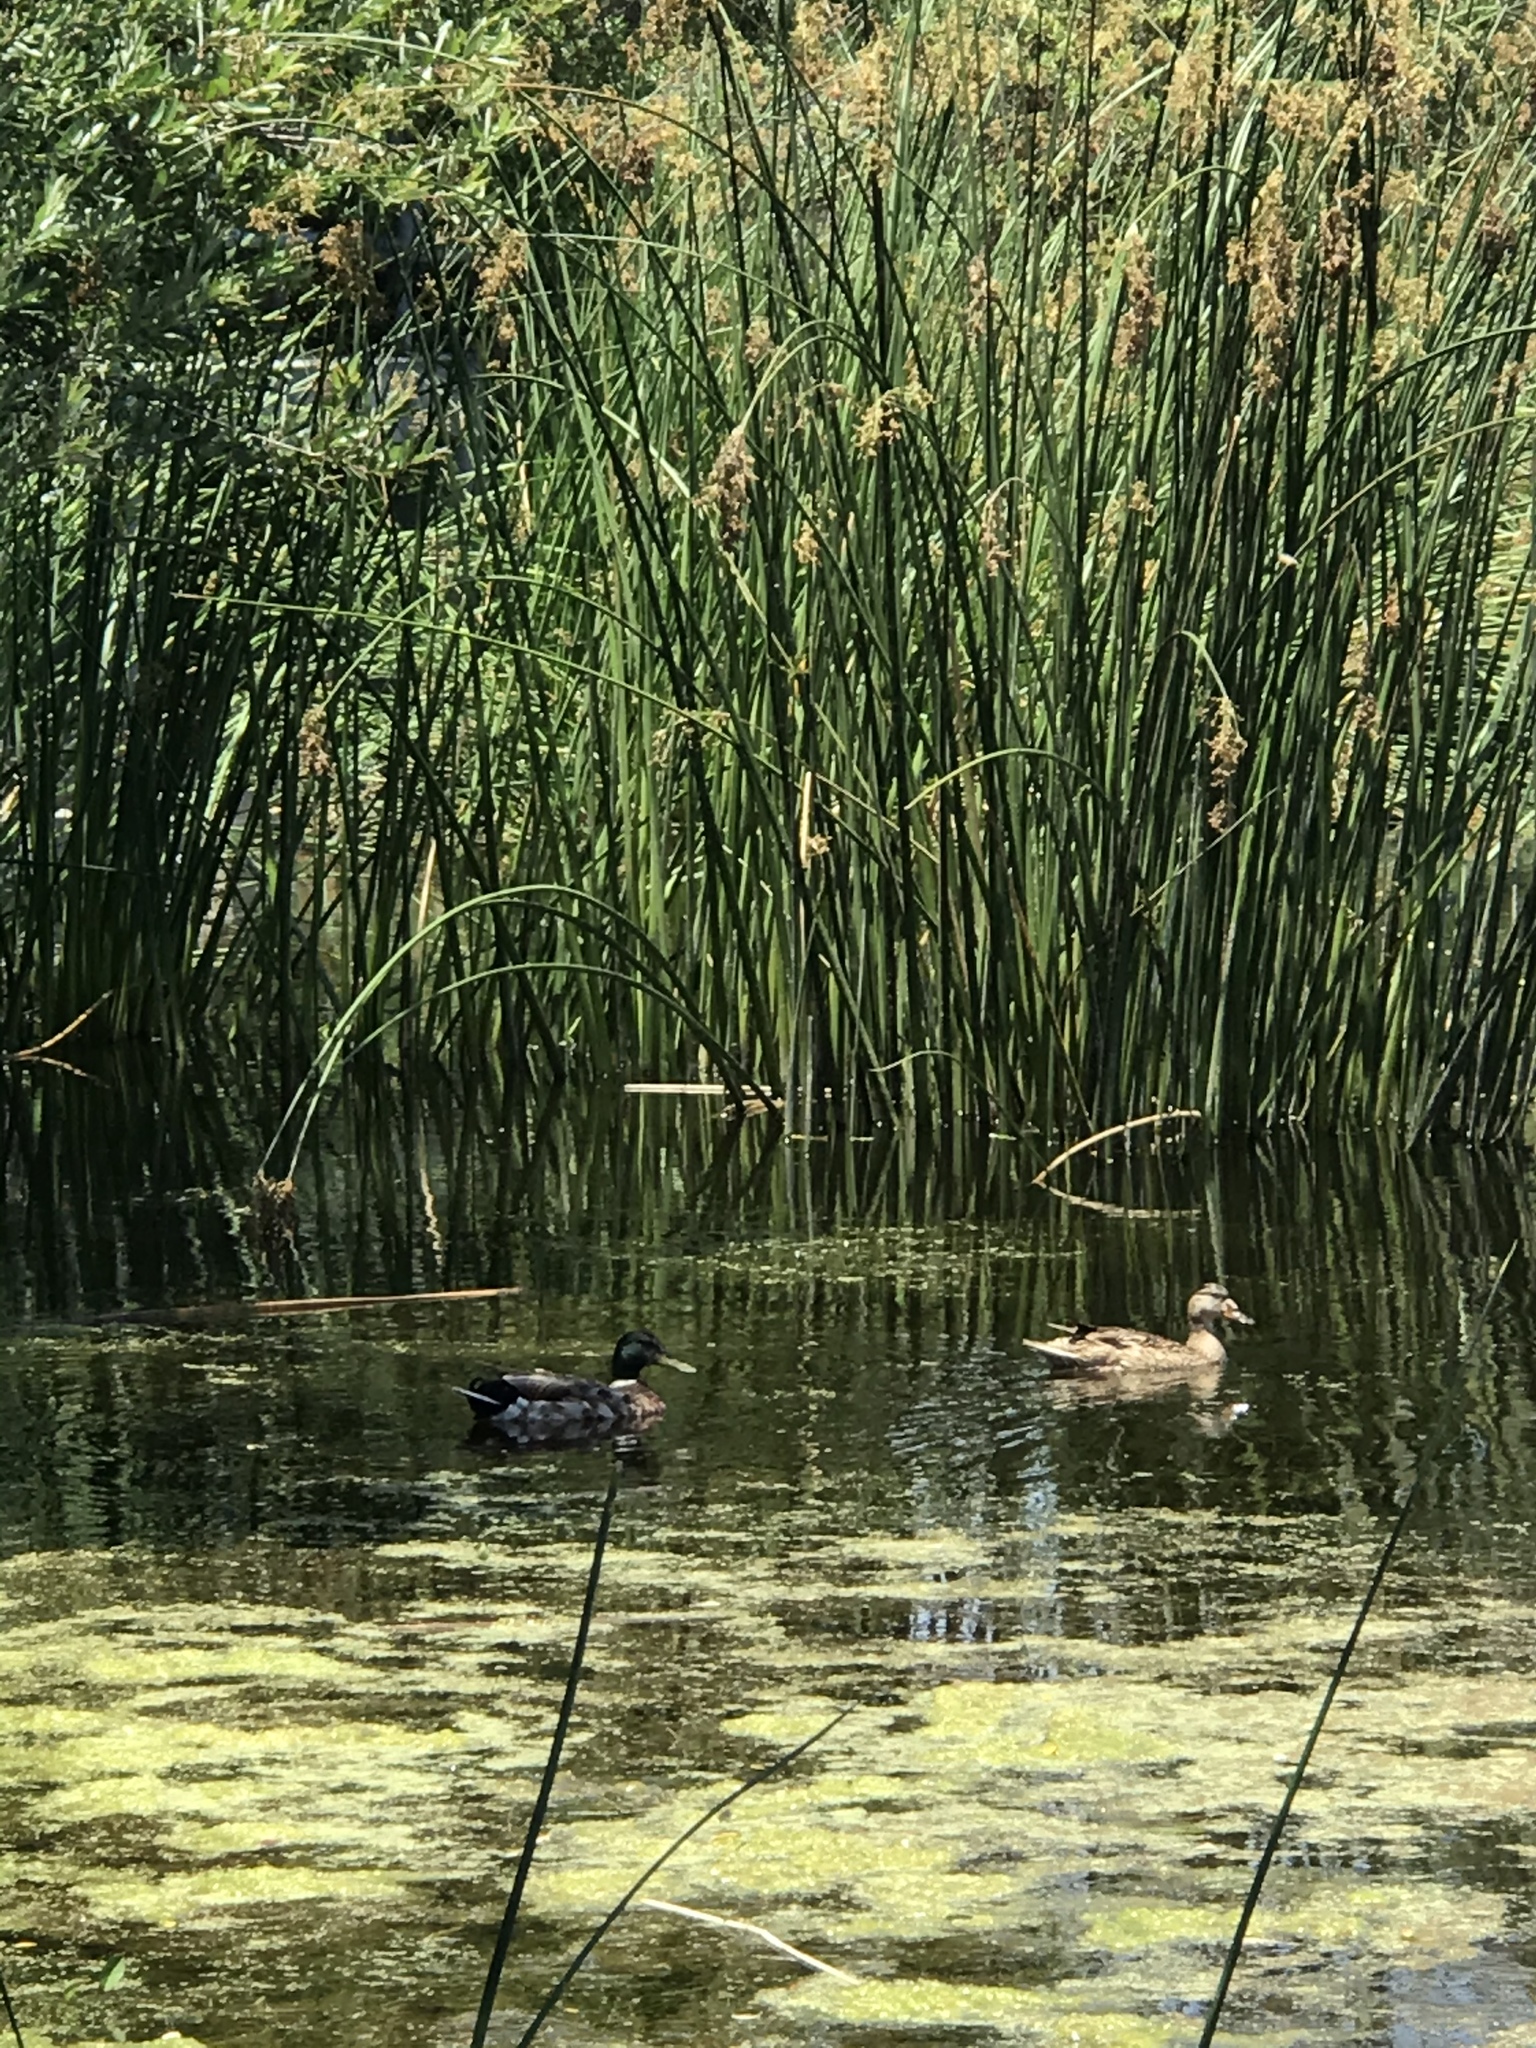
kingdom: Animalia
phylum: Chordata
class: Aves
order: Anseriformes
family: Anatidae
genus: Anas
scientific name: Anas platyrhynchos
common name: Mallard
